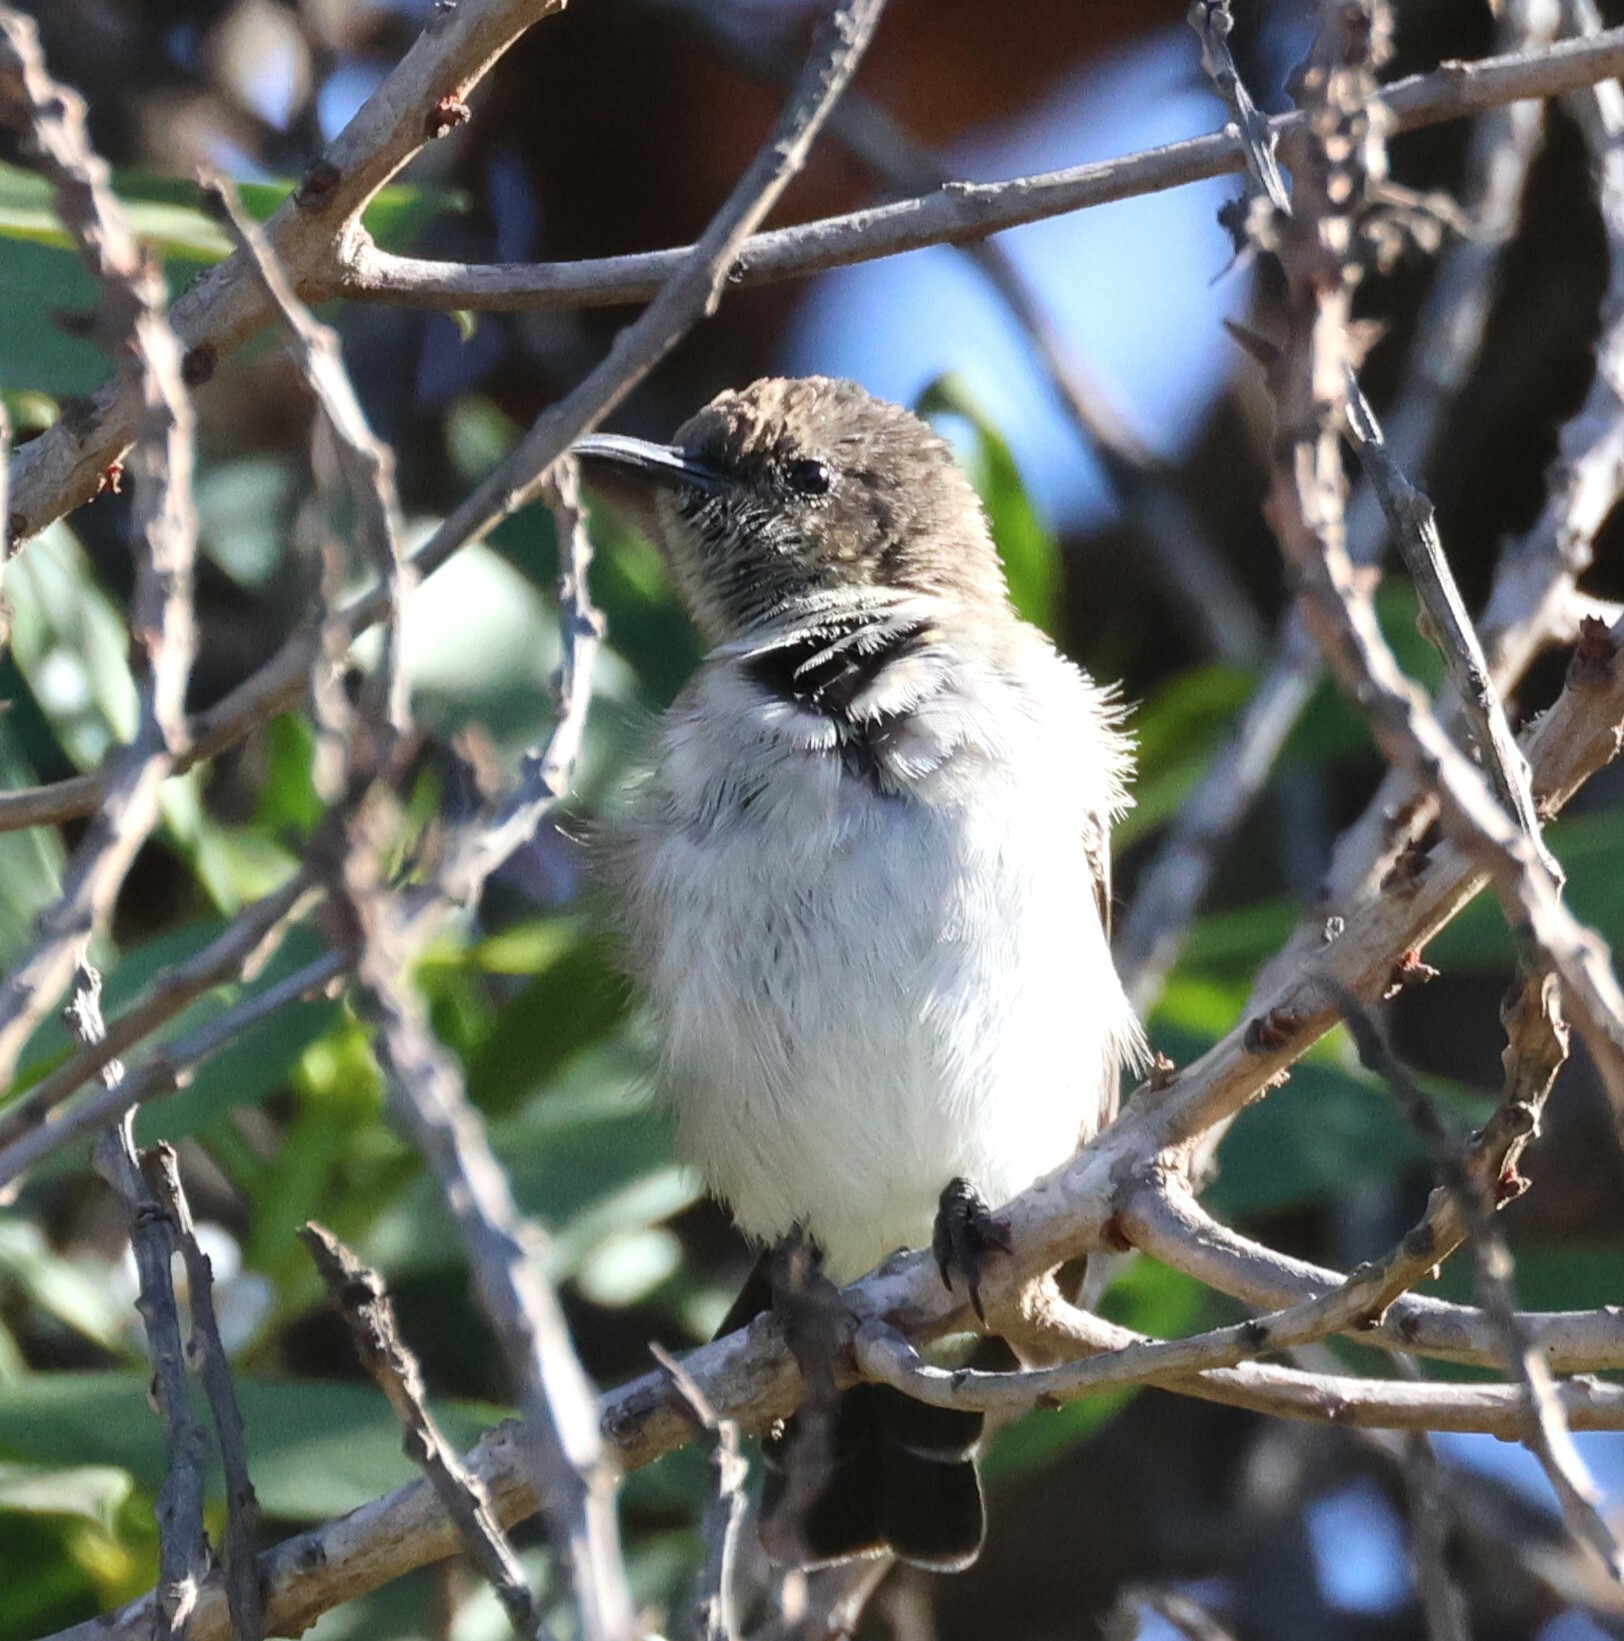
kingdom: Animalia
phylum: Chordata
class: Aves
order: Passeriformes
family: Nectariniidae
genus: Cinnyris
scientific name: Cinnyris fuscus
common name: Dusky sunbird
